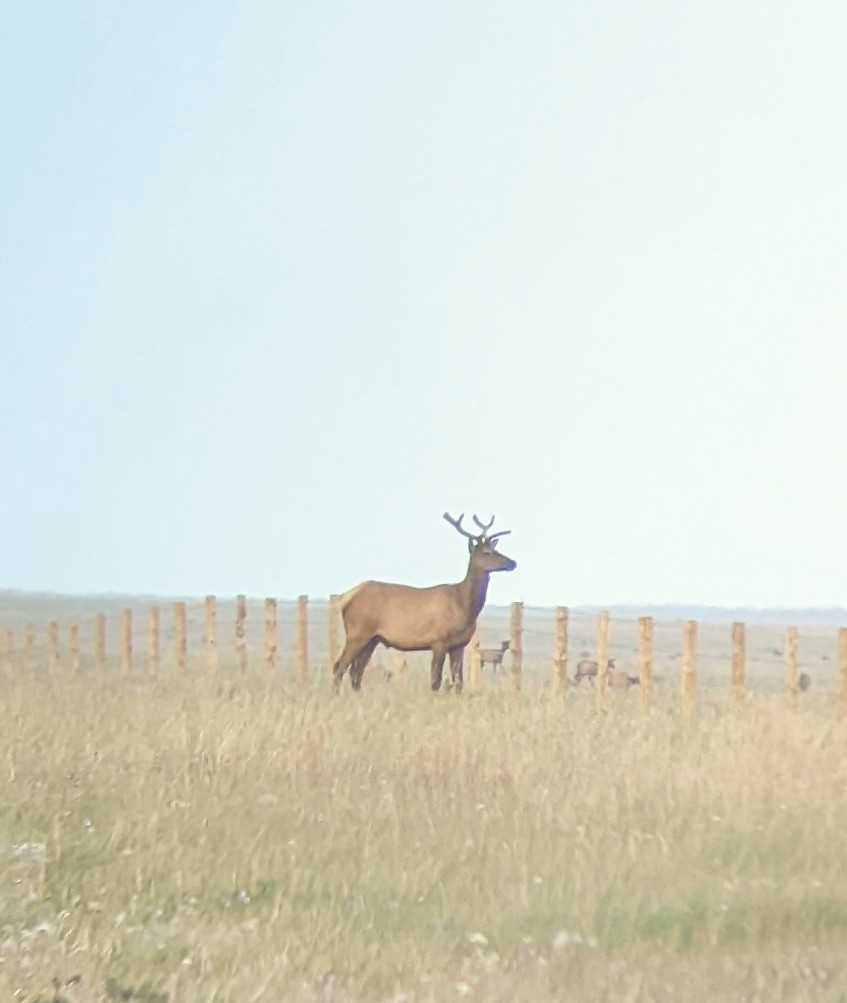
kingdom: Animalia
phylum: Chordata
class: Mammalia
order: Artiodactyla
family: Cervidae
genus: Cervus
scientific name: Cervus elaphus
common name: Red deer
